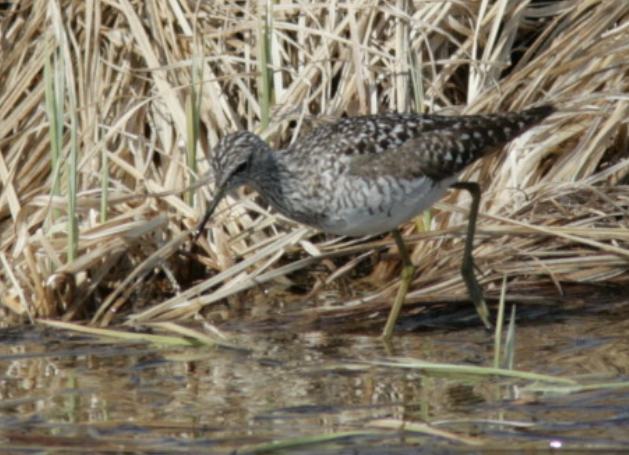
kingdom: Animalia
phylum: Chordata
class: Aves
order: Charadriiformes
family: Scolopacidae
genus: Tringa
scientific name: Tringa glareola
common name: Wood sandpiper
